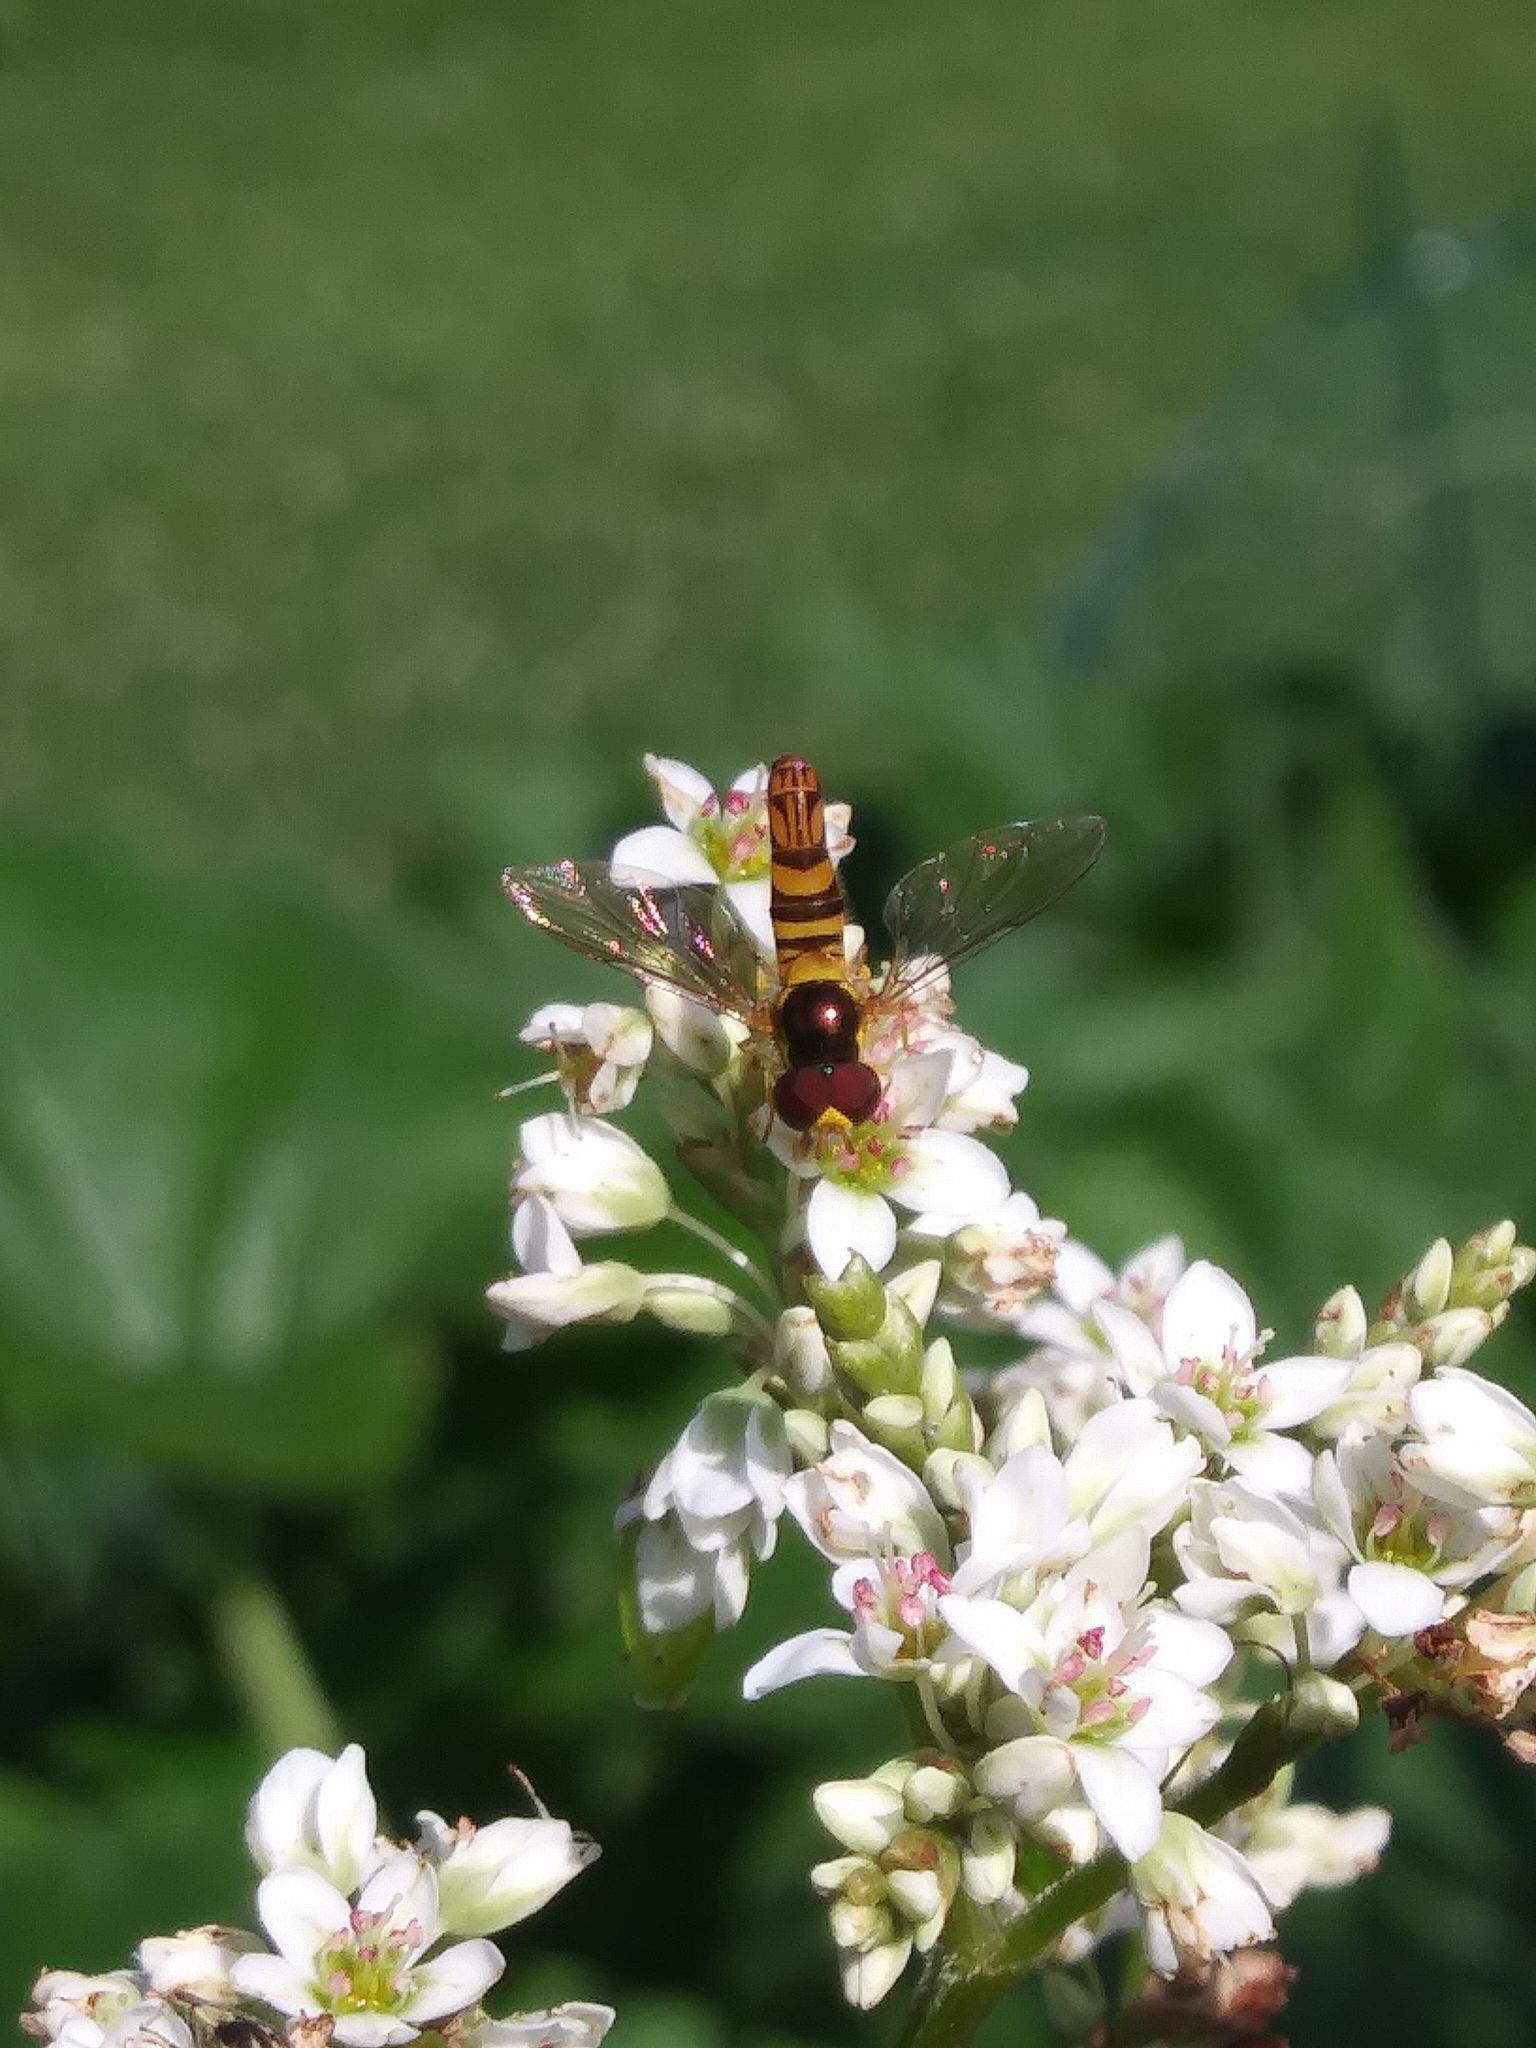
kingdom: Animalia
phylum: Arthropoda
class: Insecta
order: Diptera
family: Syrphidae
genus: Allograpta
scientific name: Allograpta obliqua
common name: Common oblique syrphid
